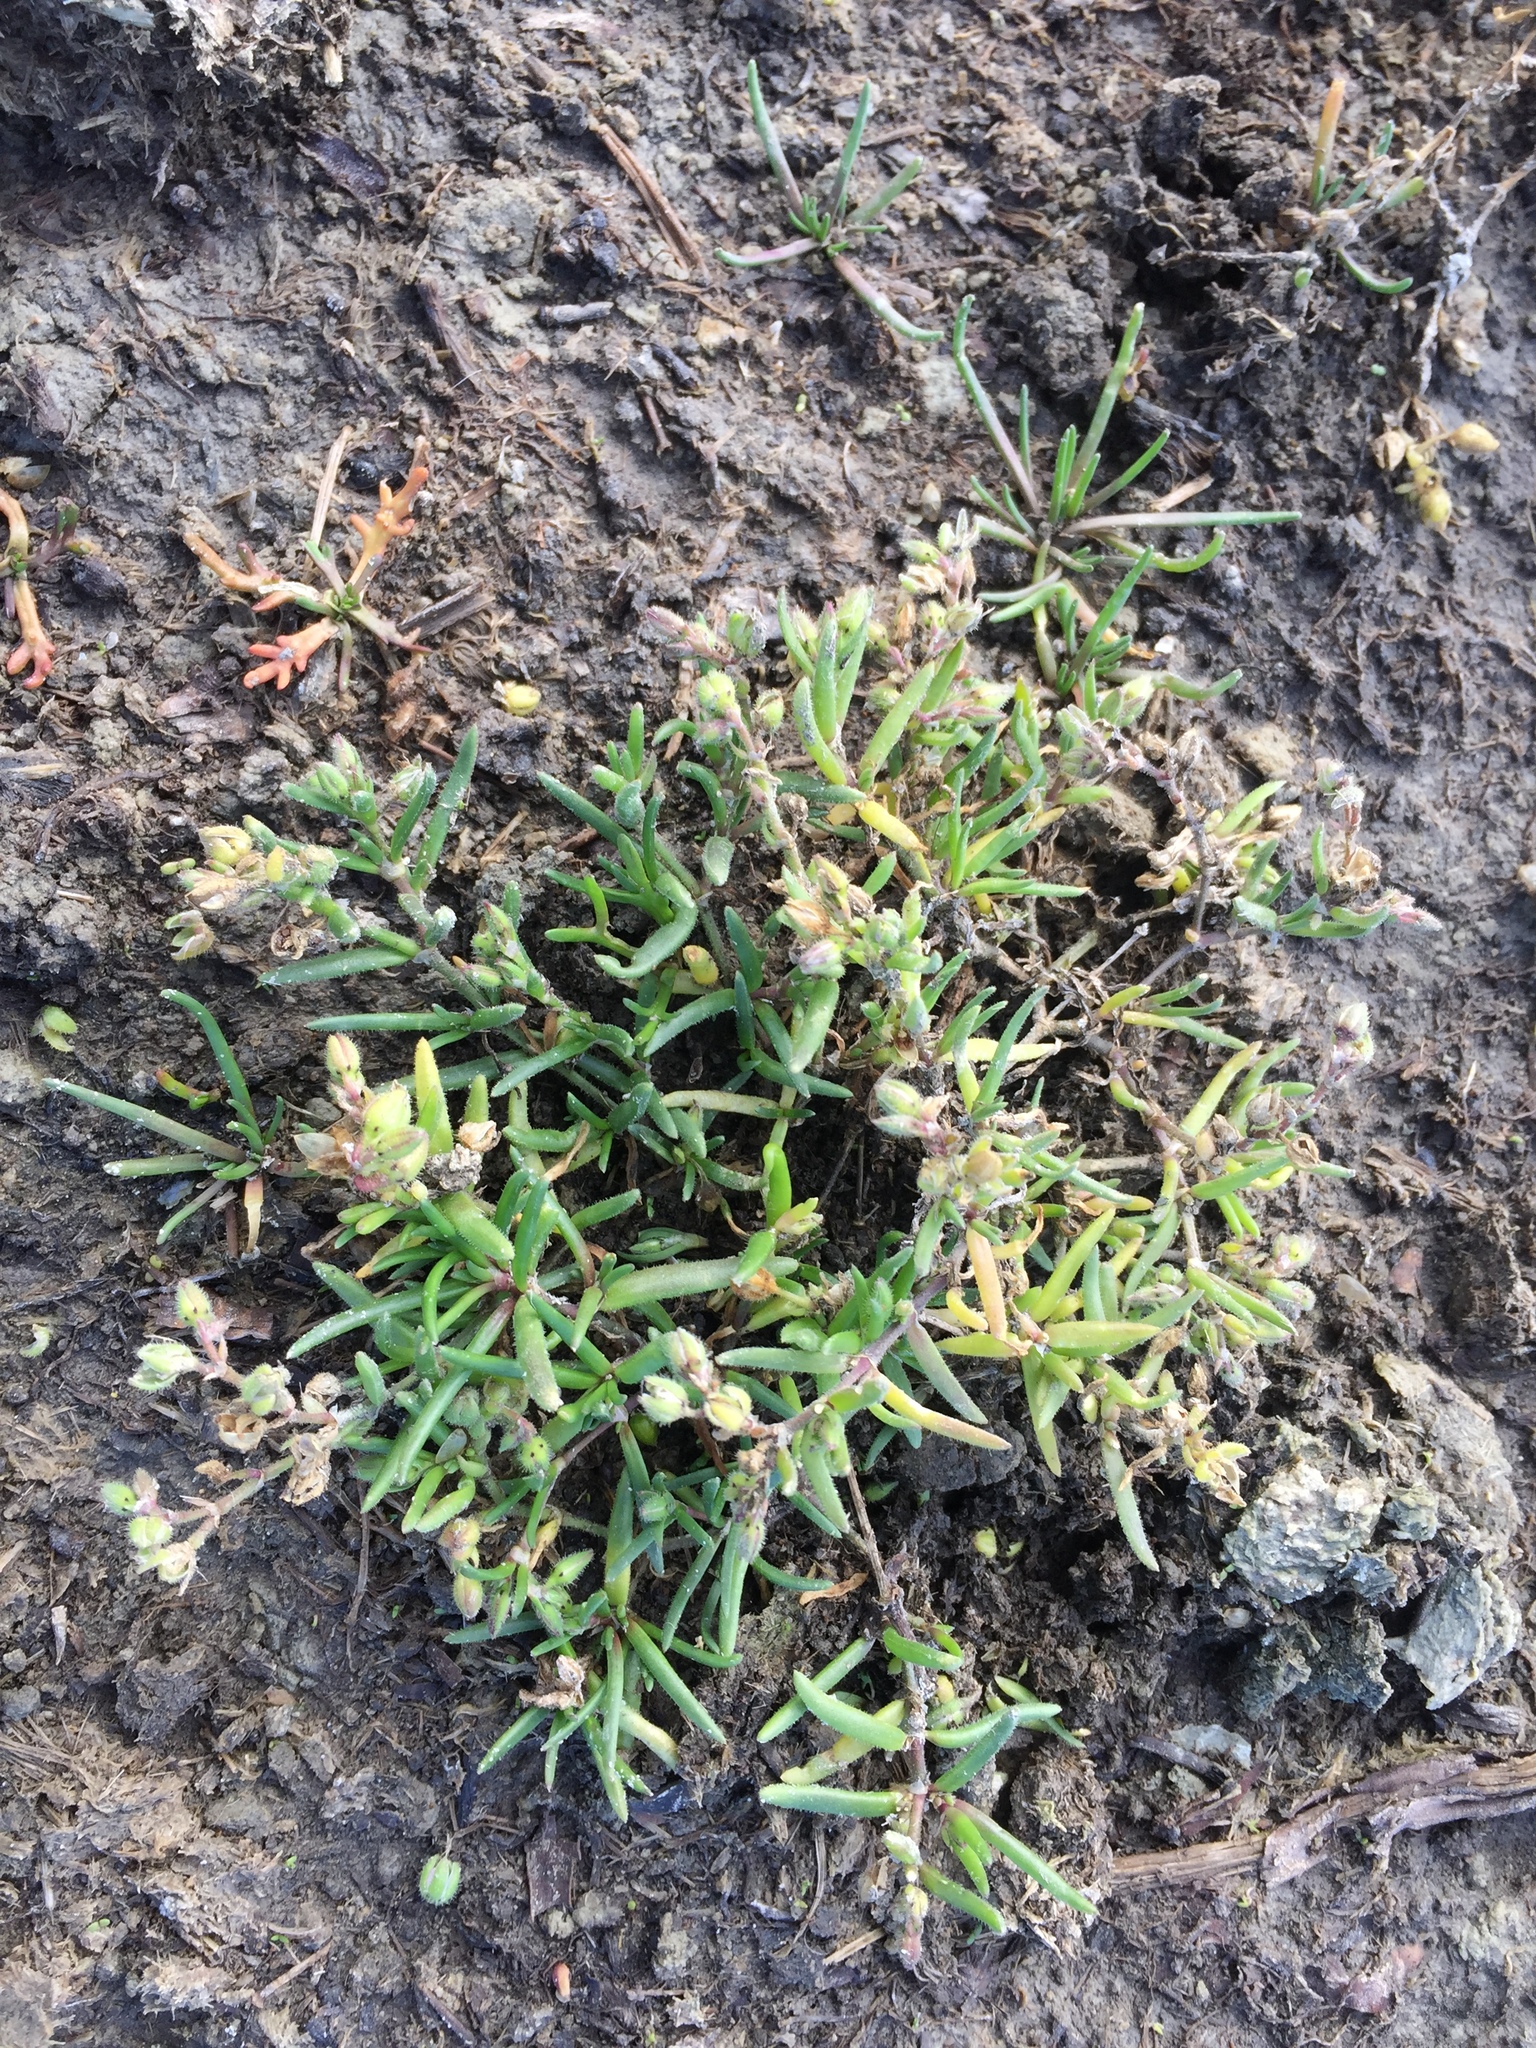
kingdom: Plantae
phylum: Tracheophyta
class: Magnoliopsida
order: Caryophyllales
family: Caryophyllaceae
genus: Spergularia
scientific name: Spergularia rubra
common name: Red sand-spurrey
